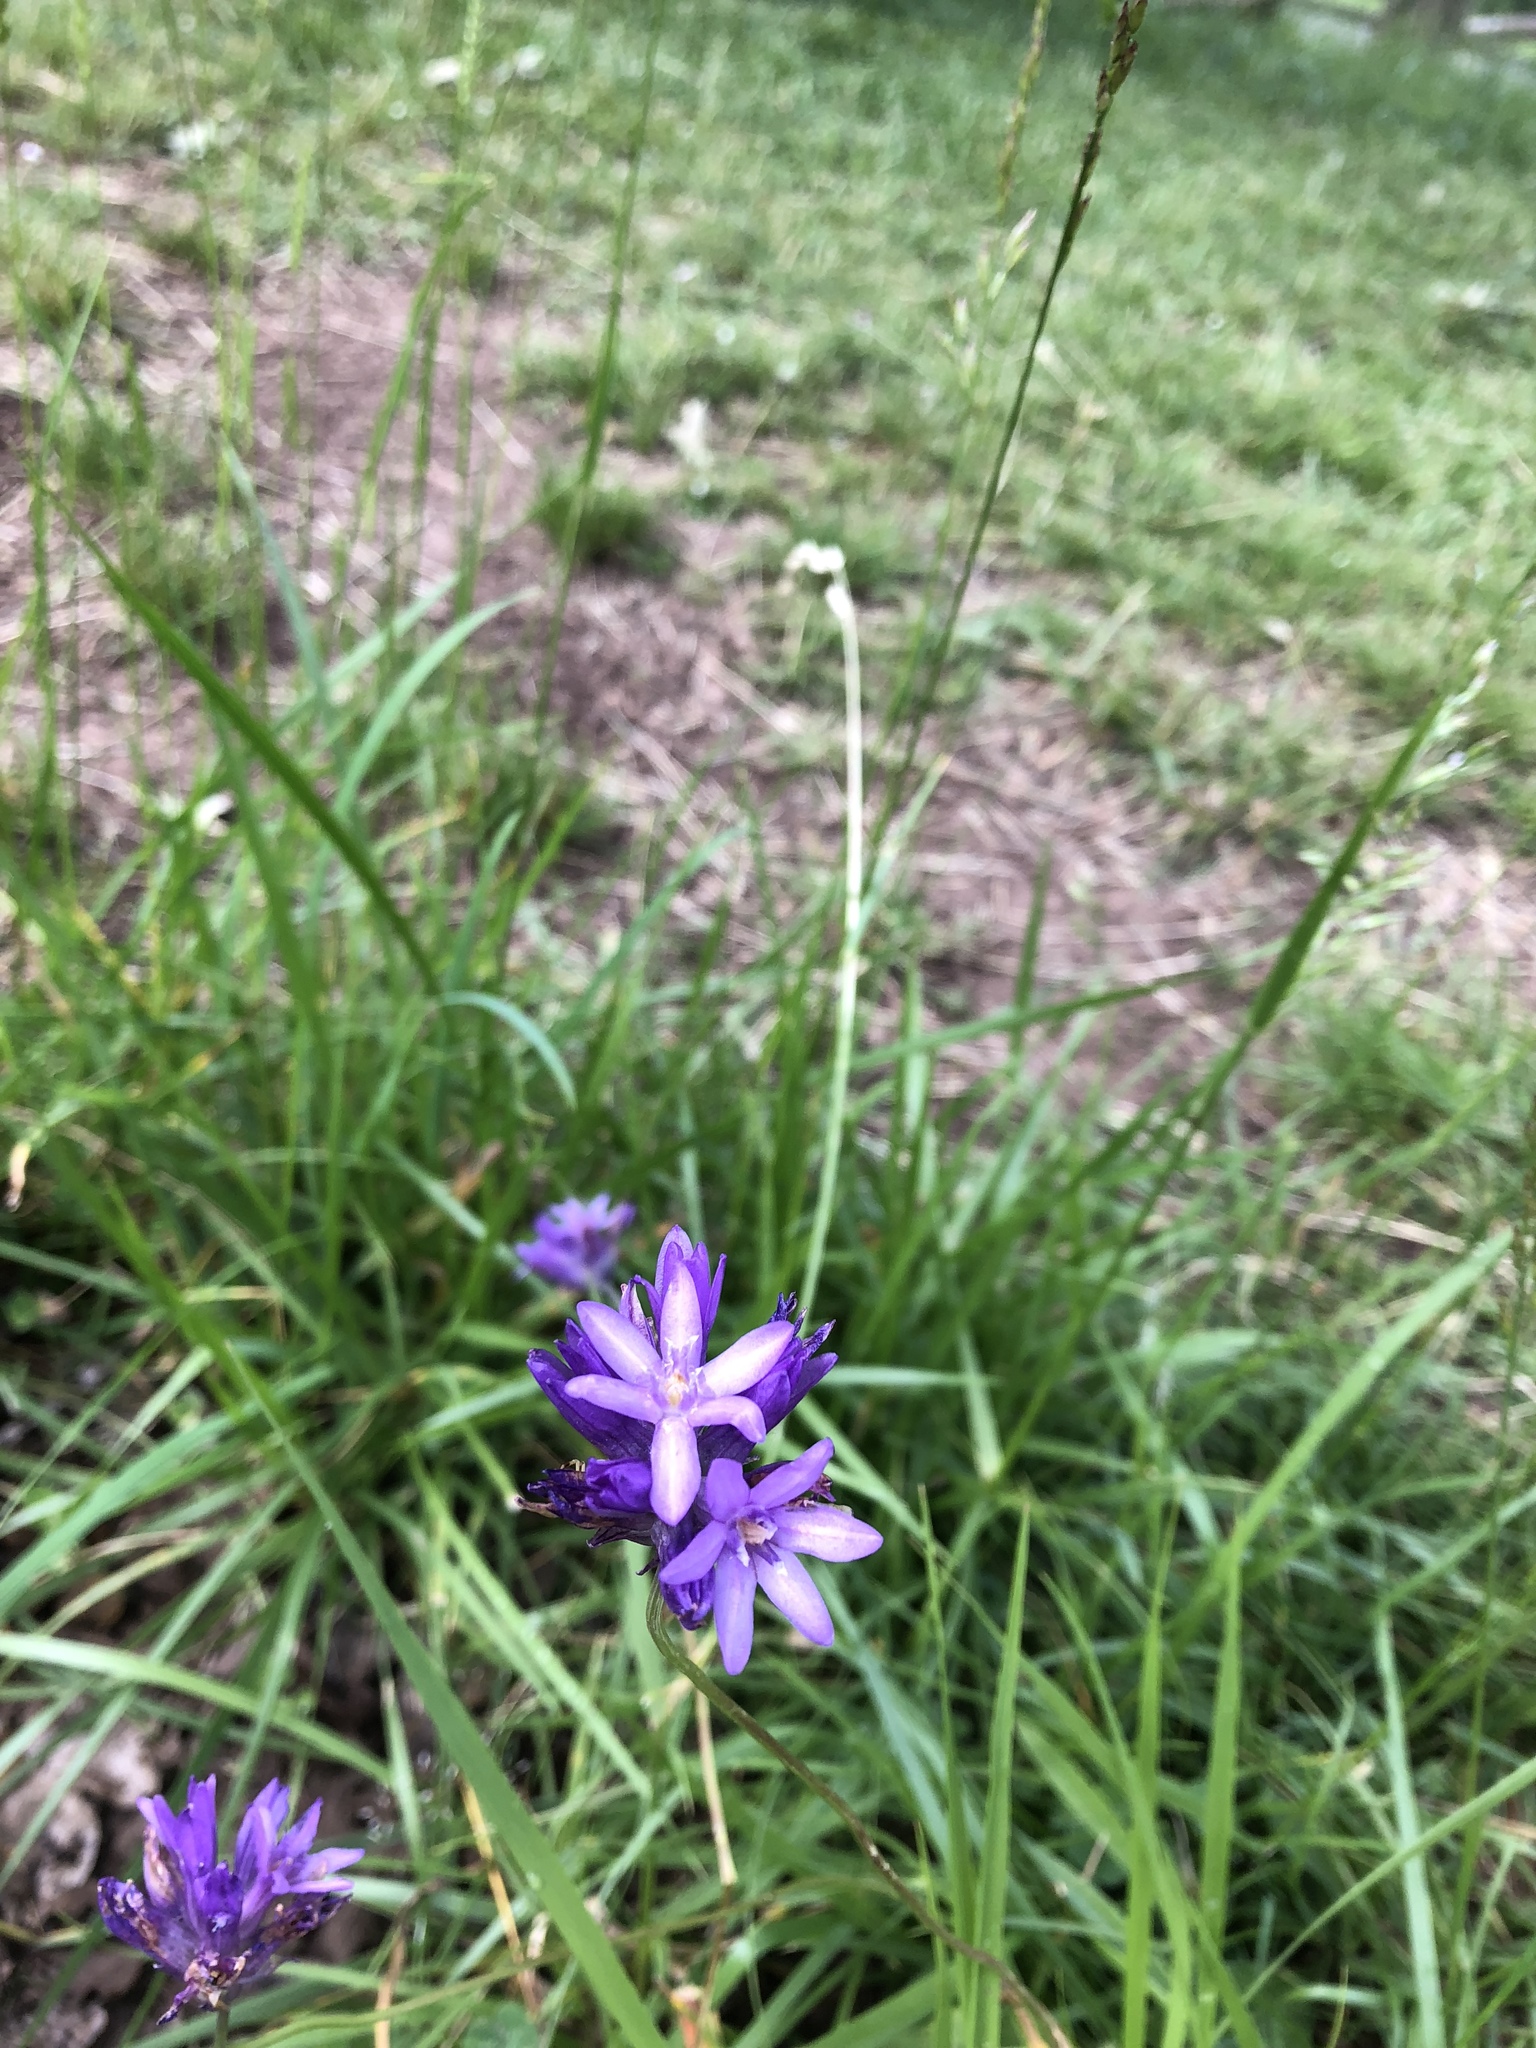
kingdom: Plantae
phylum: Tracheophyta
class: Liliopsida
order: Asparagales
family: Asparagaceae
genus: Dichelostemma
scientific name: Dichelostemma congestum
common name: Fork-tooth ookow
